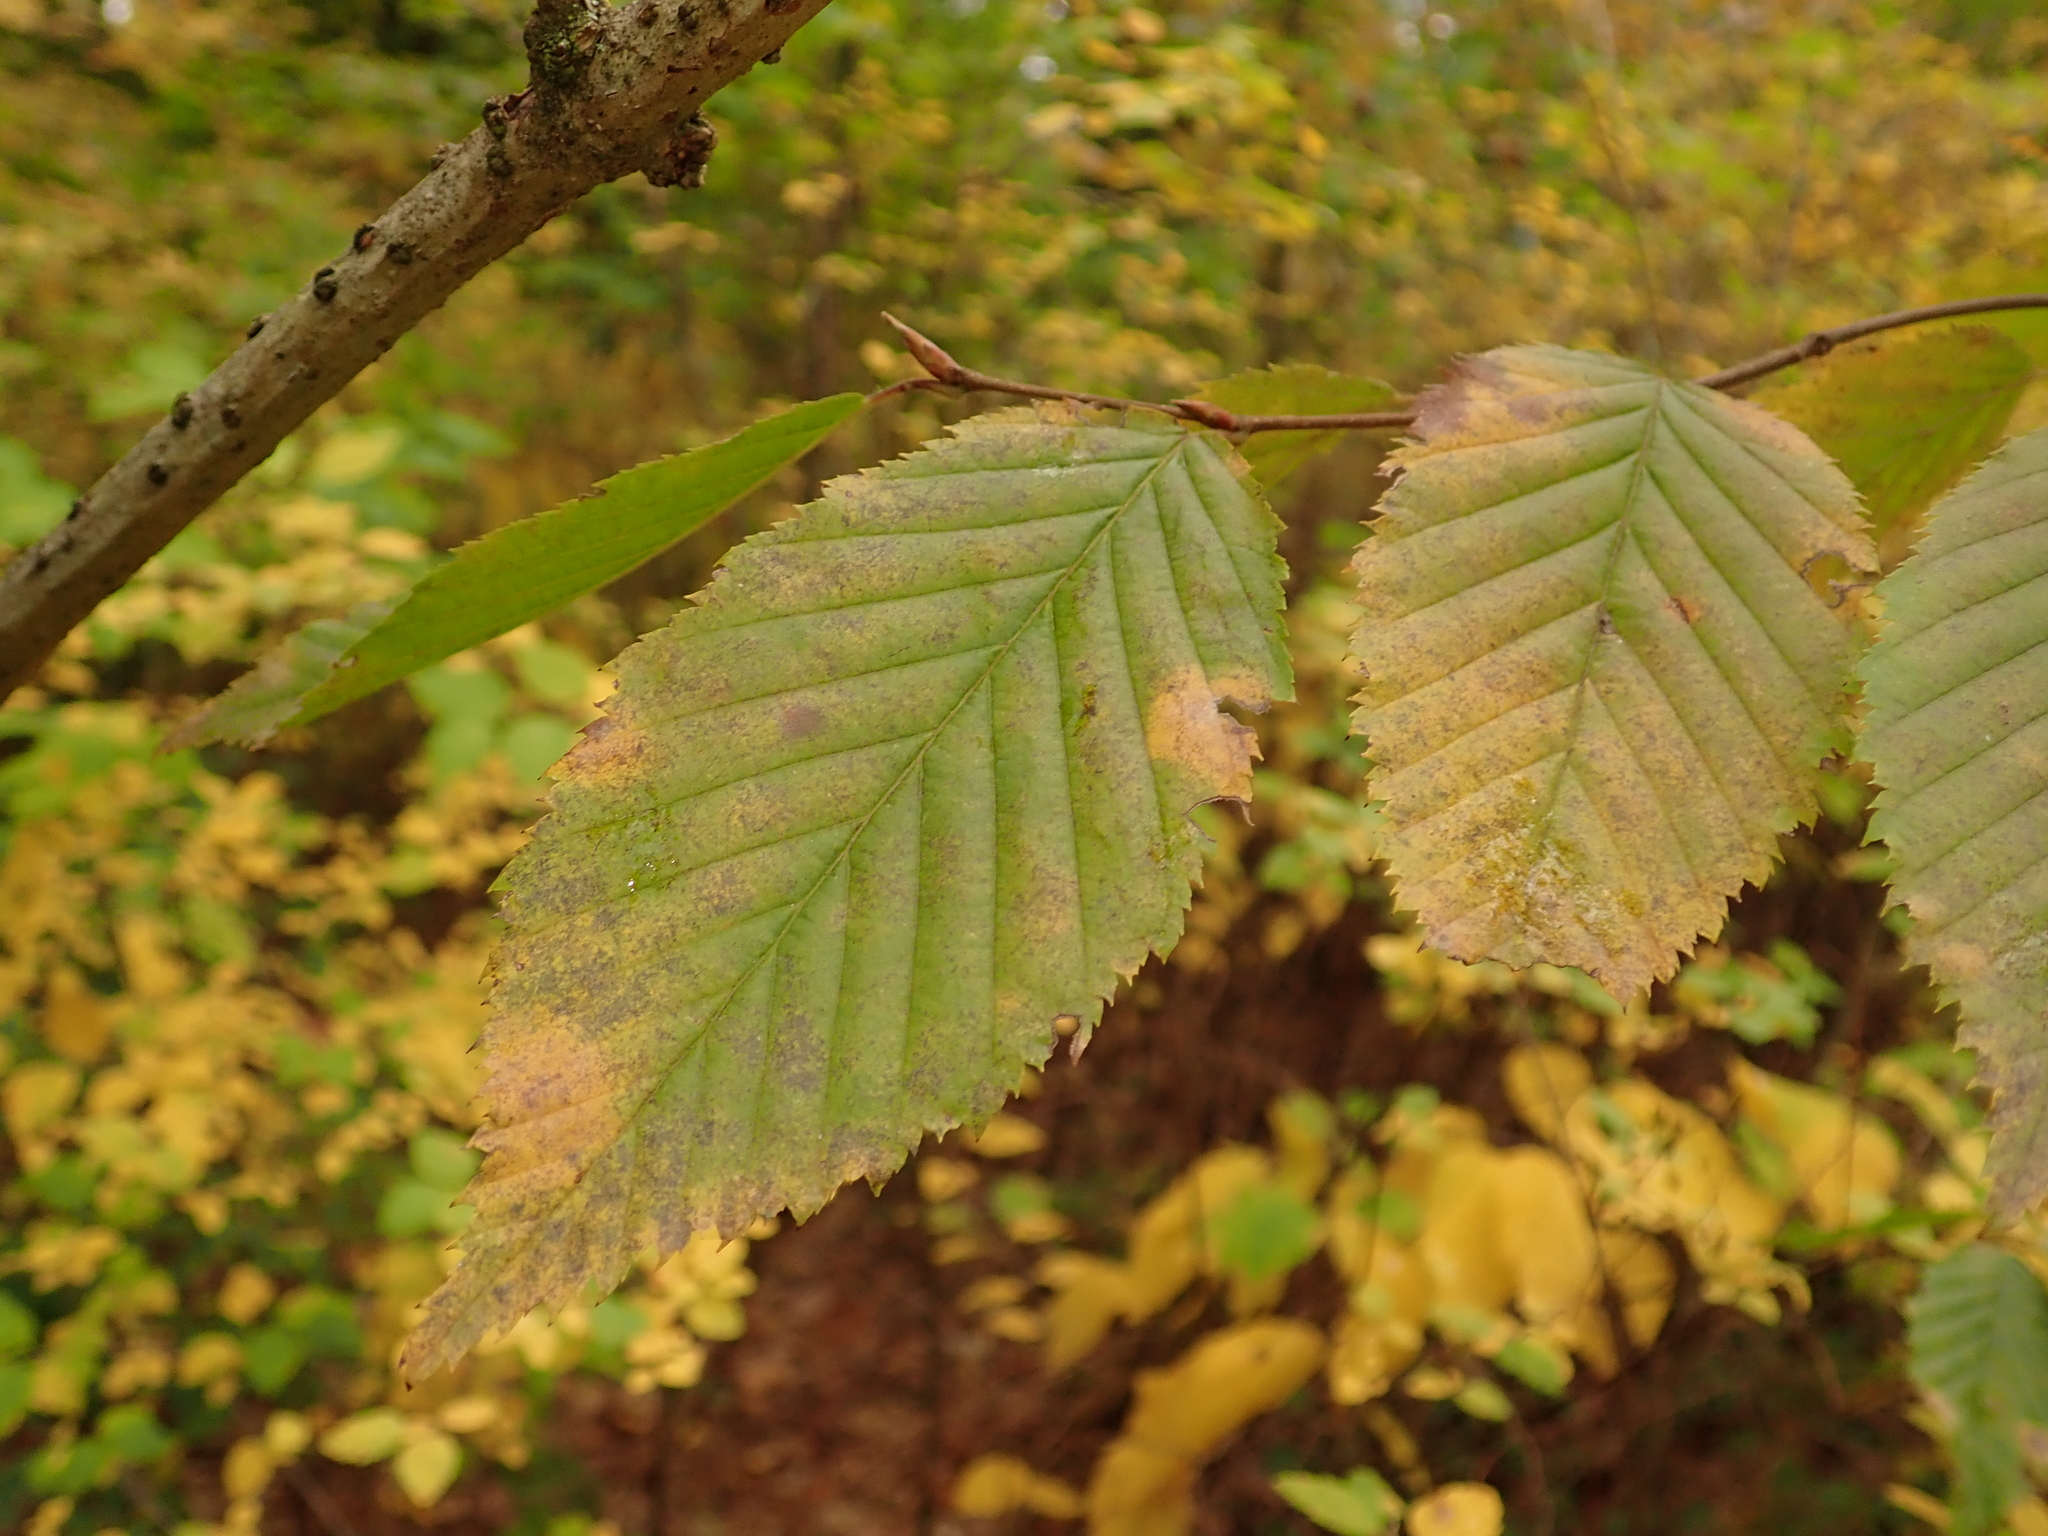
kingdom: Plantae
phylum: Tracheophyta
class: Magnoliopsida
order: Fagales
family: Betulaceae
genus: Carpinus
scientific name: Carpinus betulus
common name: Hornbeam
